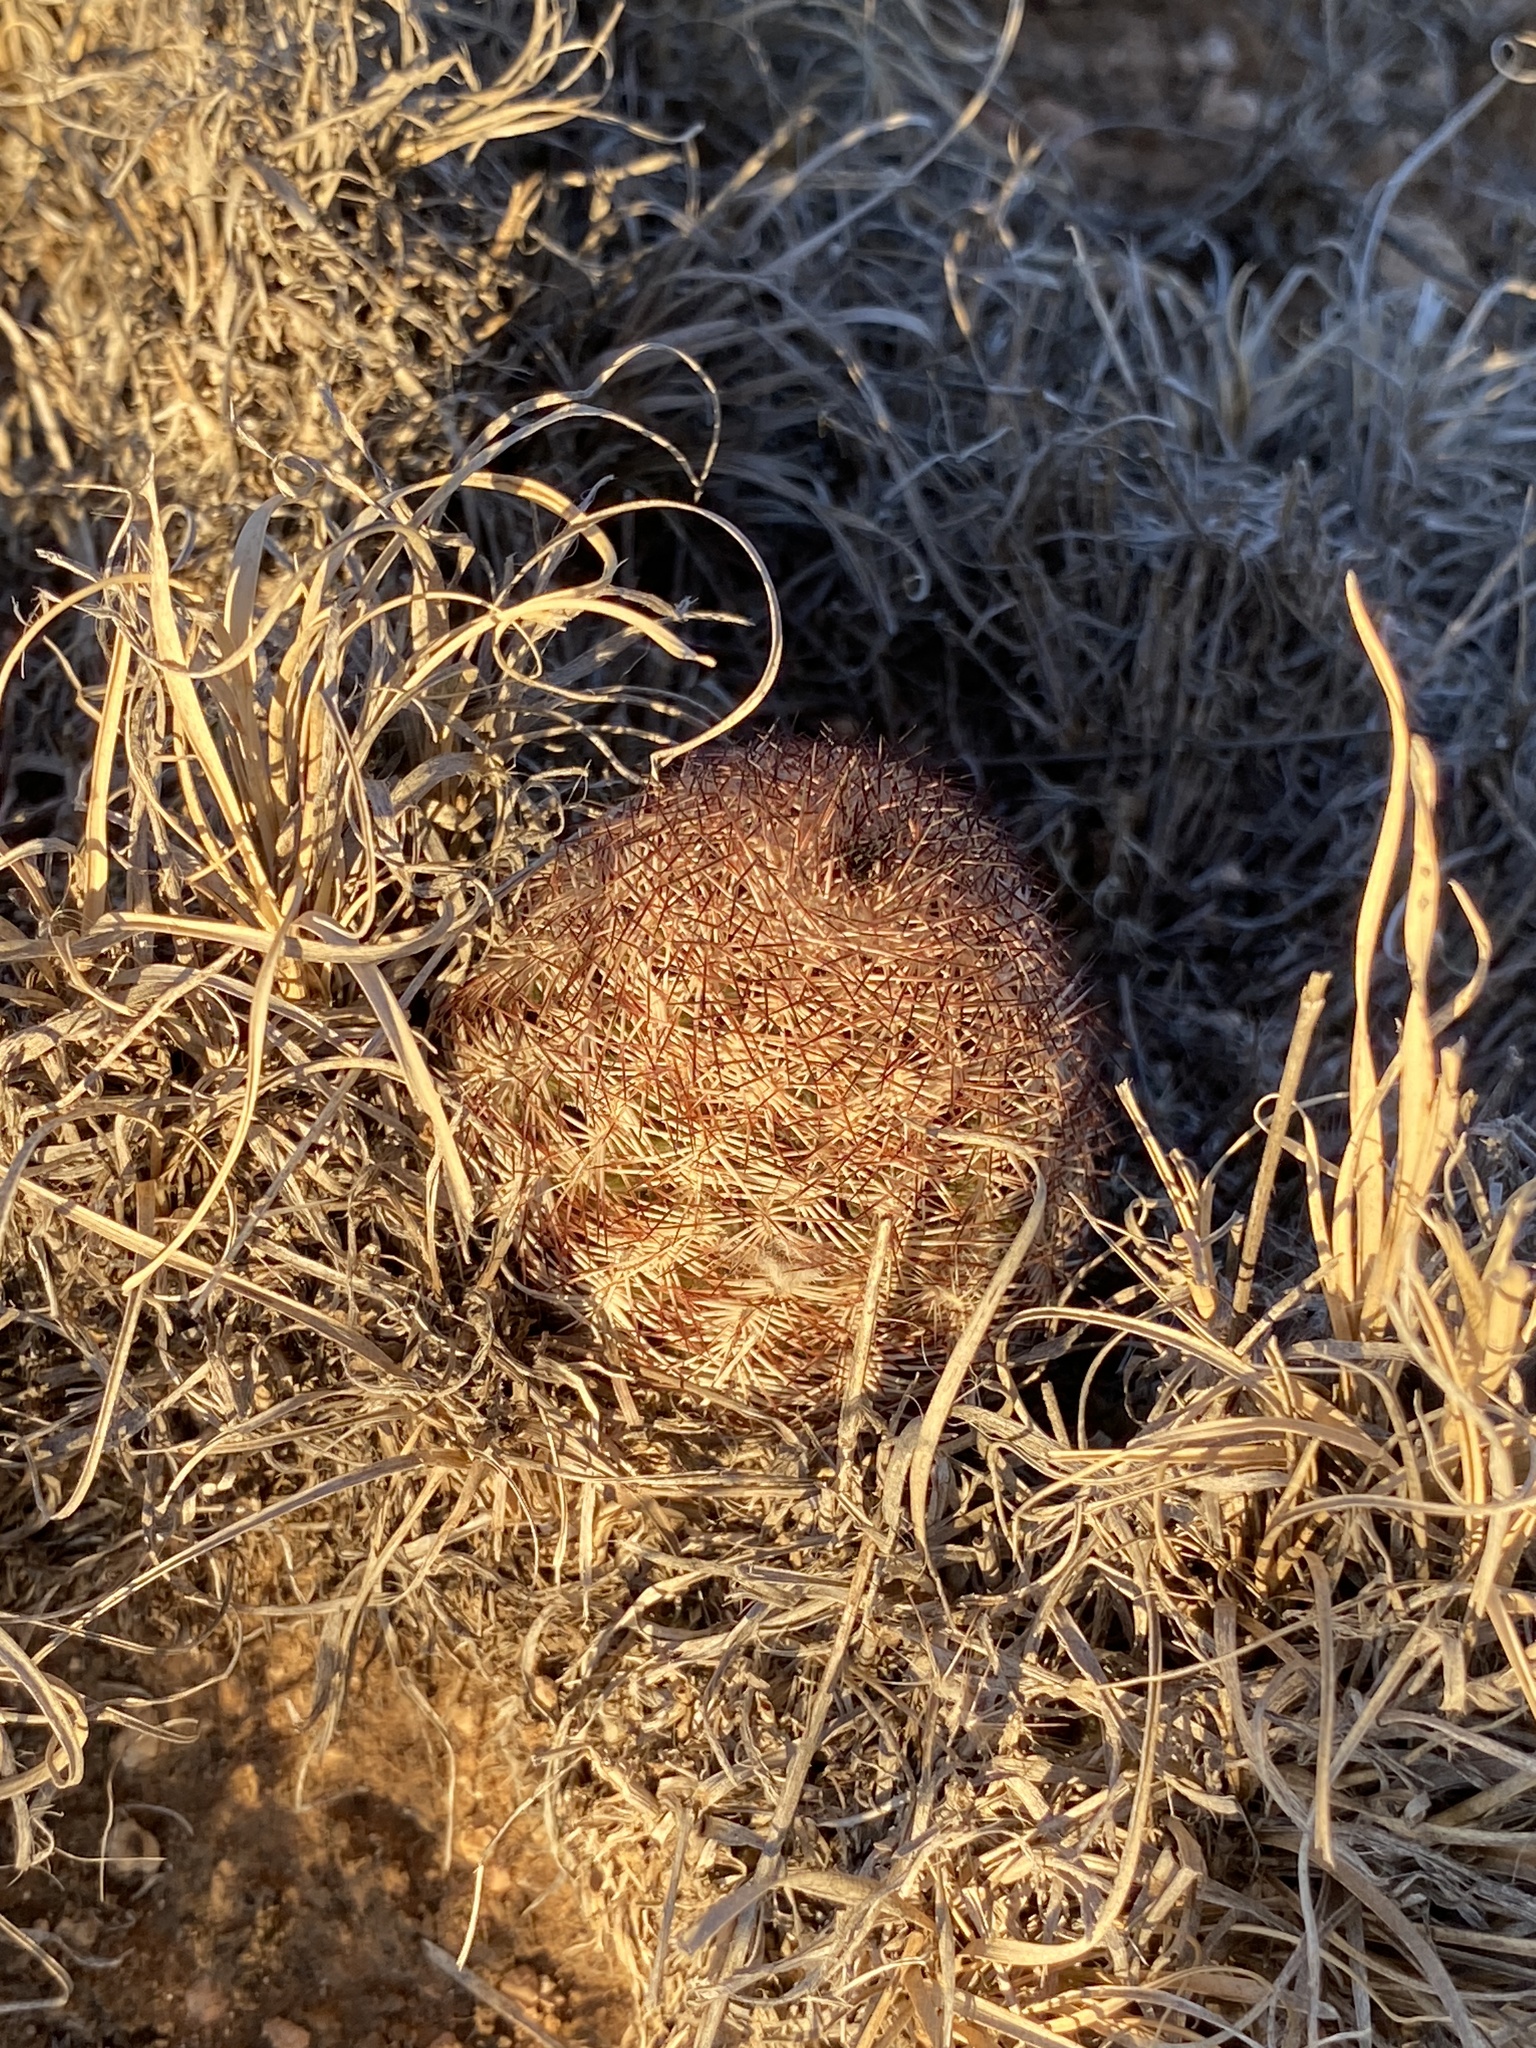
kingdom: Plantae
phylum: Tracheophyta
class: Magnoliopsida
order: Caryophyllales
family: Cactaceae
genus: Echinocereus
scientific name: Echinocereus reichenbachii
